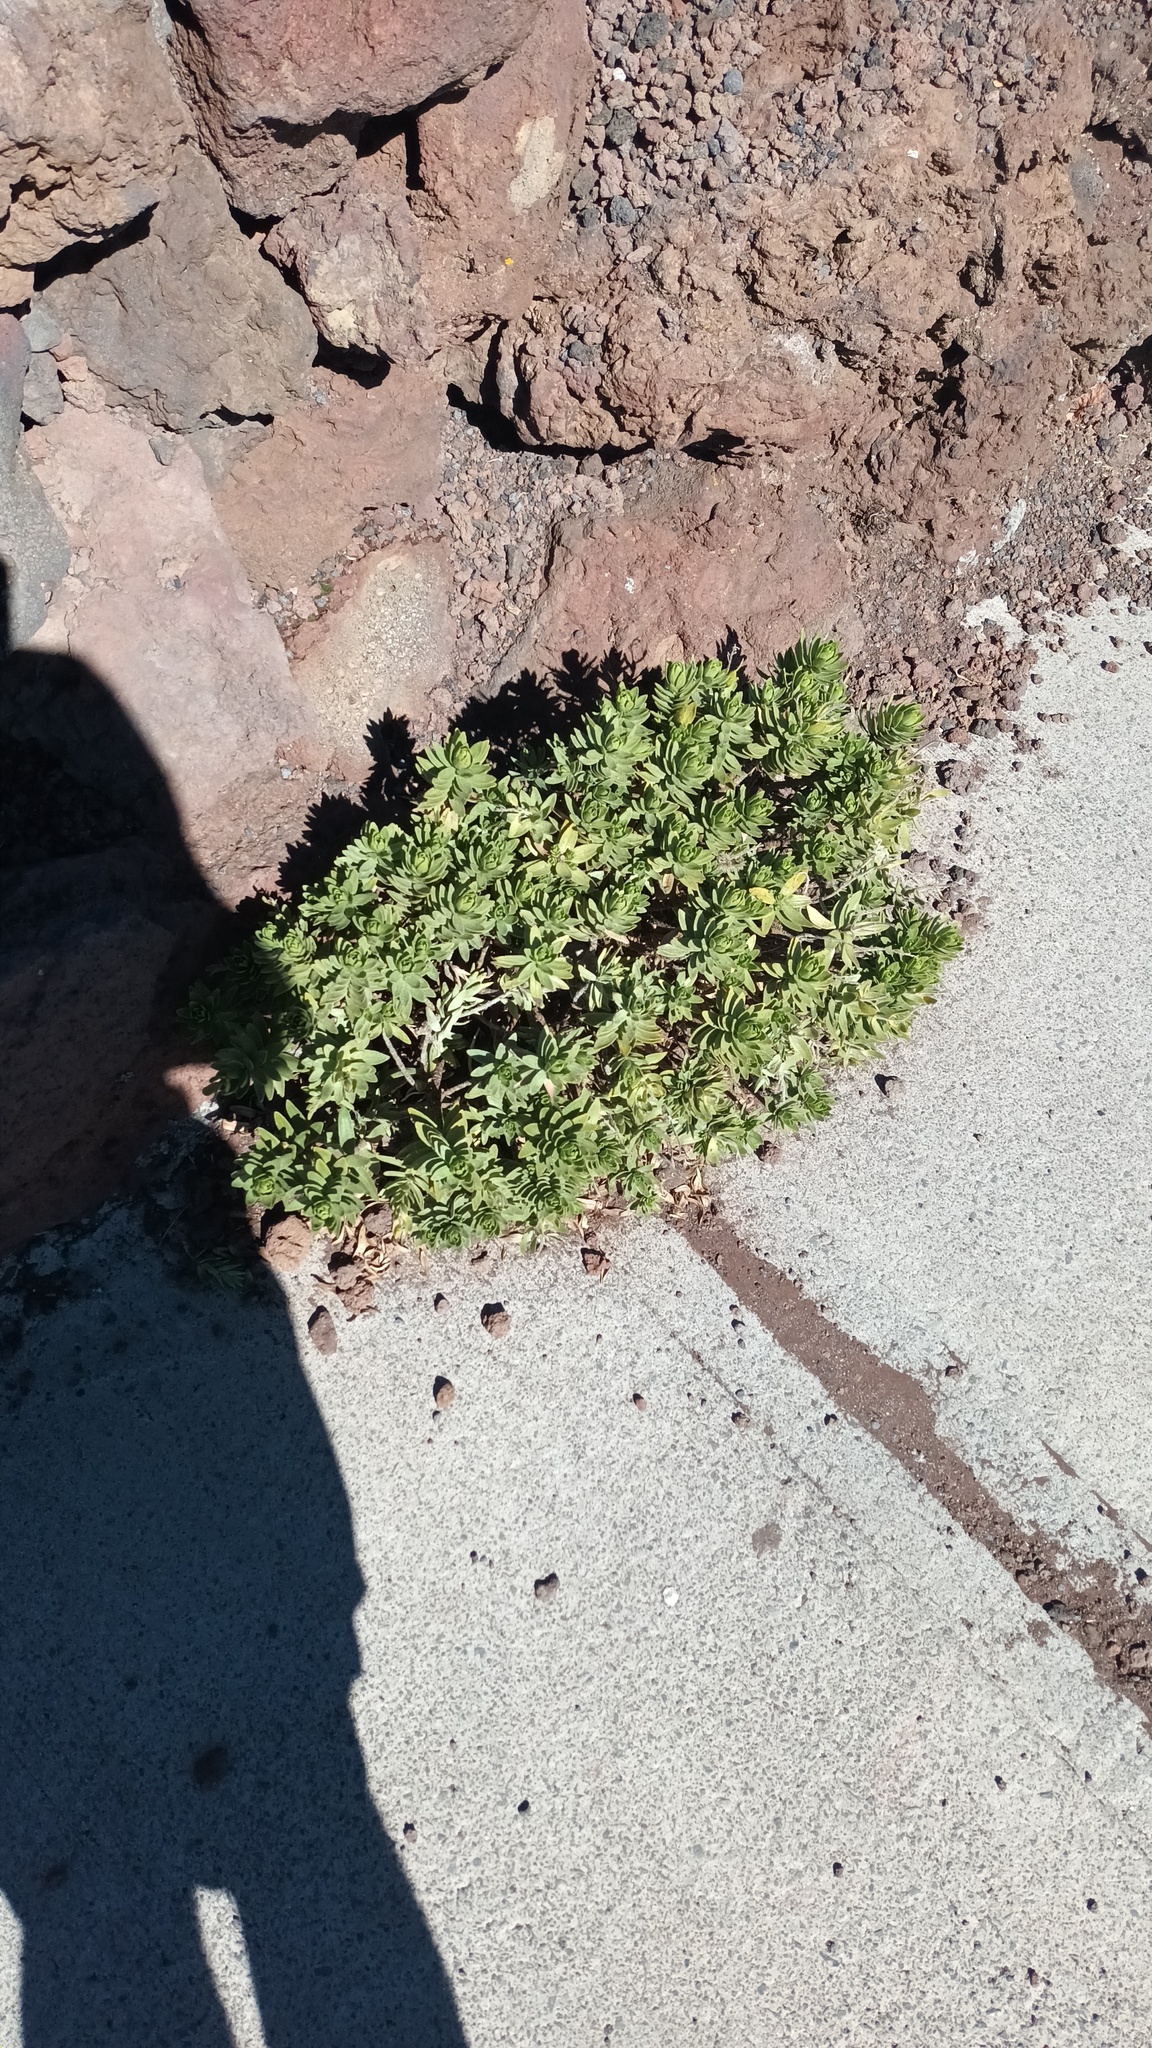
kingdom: Plantae
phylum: Tracheophyta
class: Magnoliopsida
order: Asterales
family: Asteraceae
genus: Dubautia
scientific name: Dubautia menziesii
